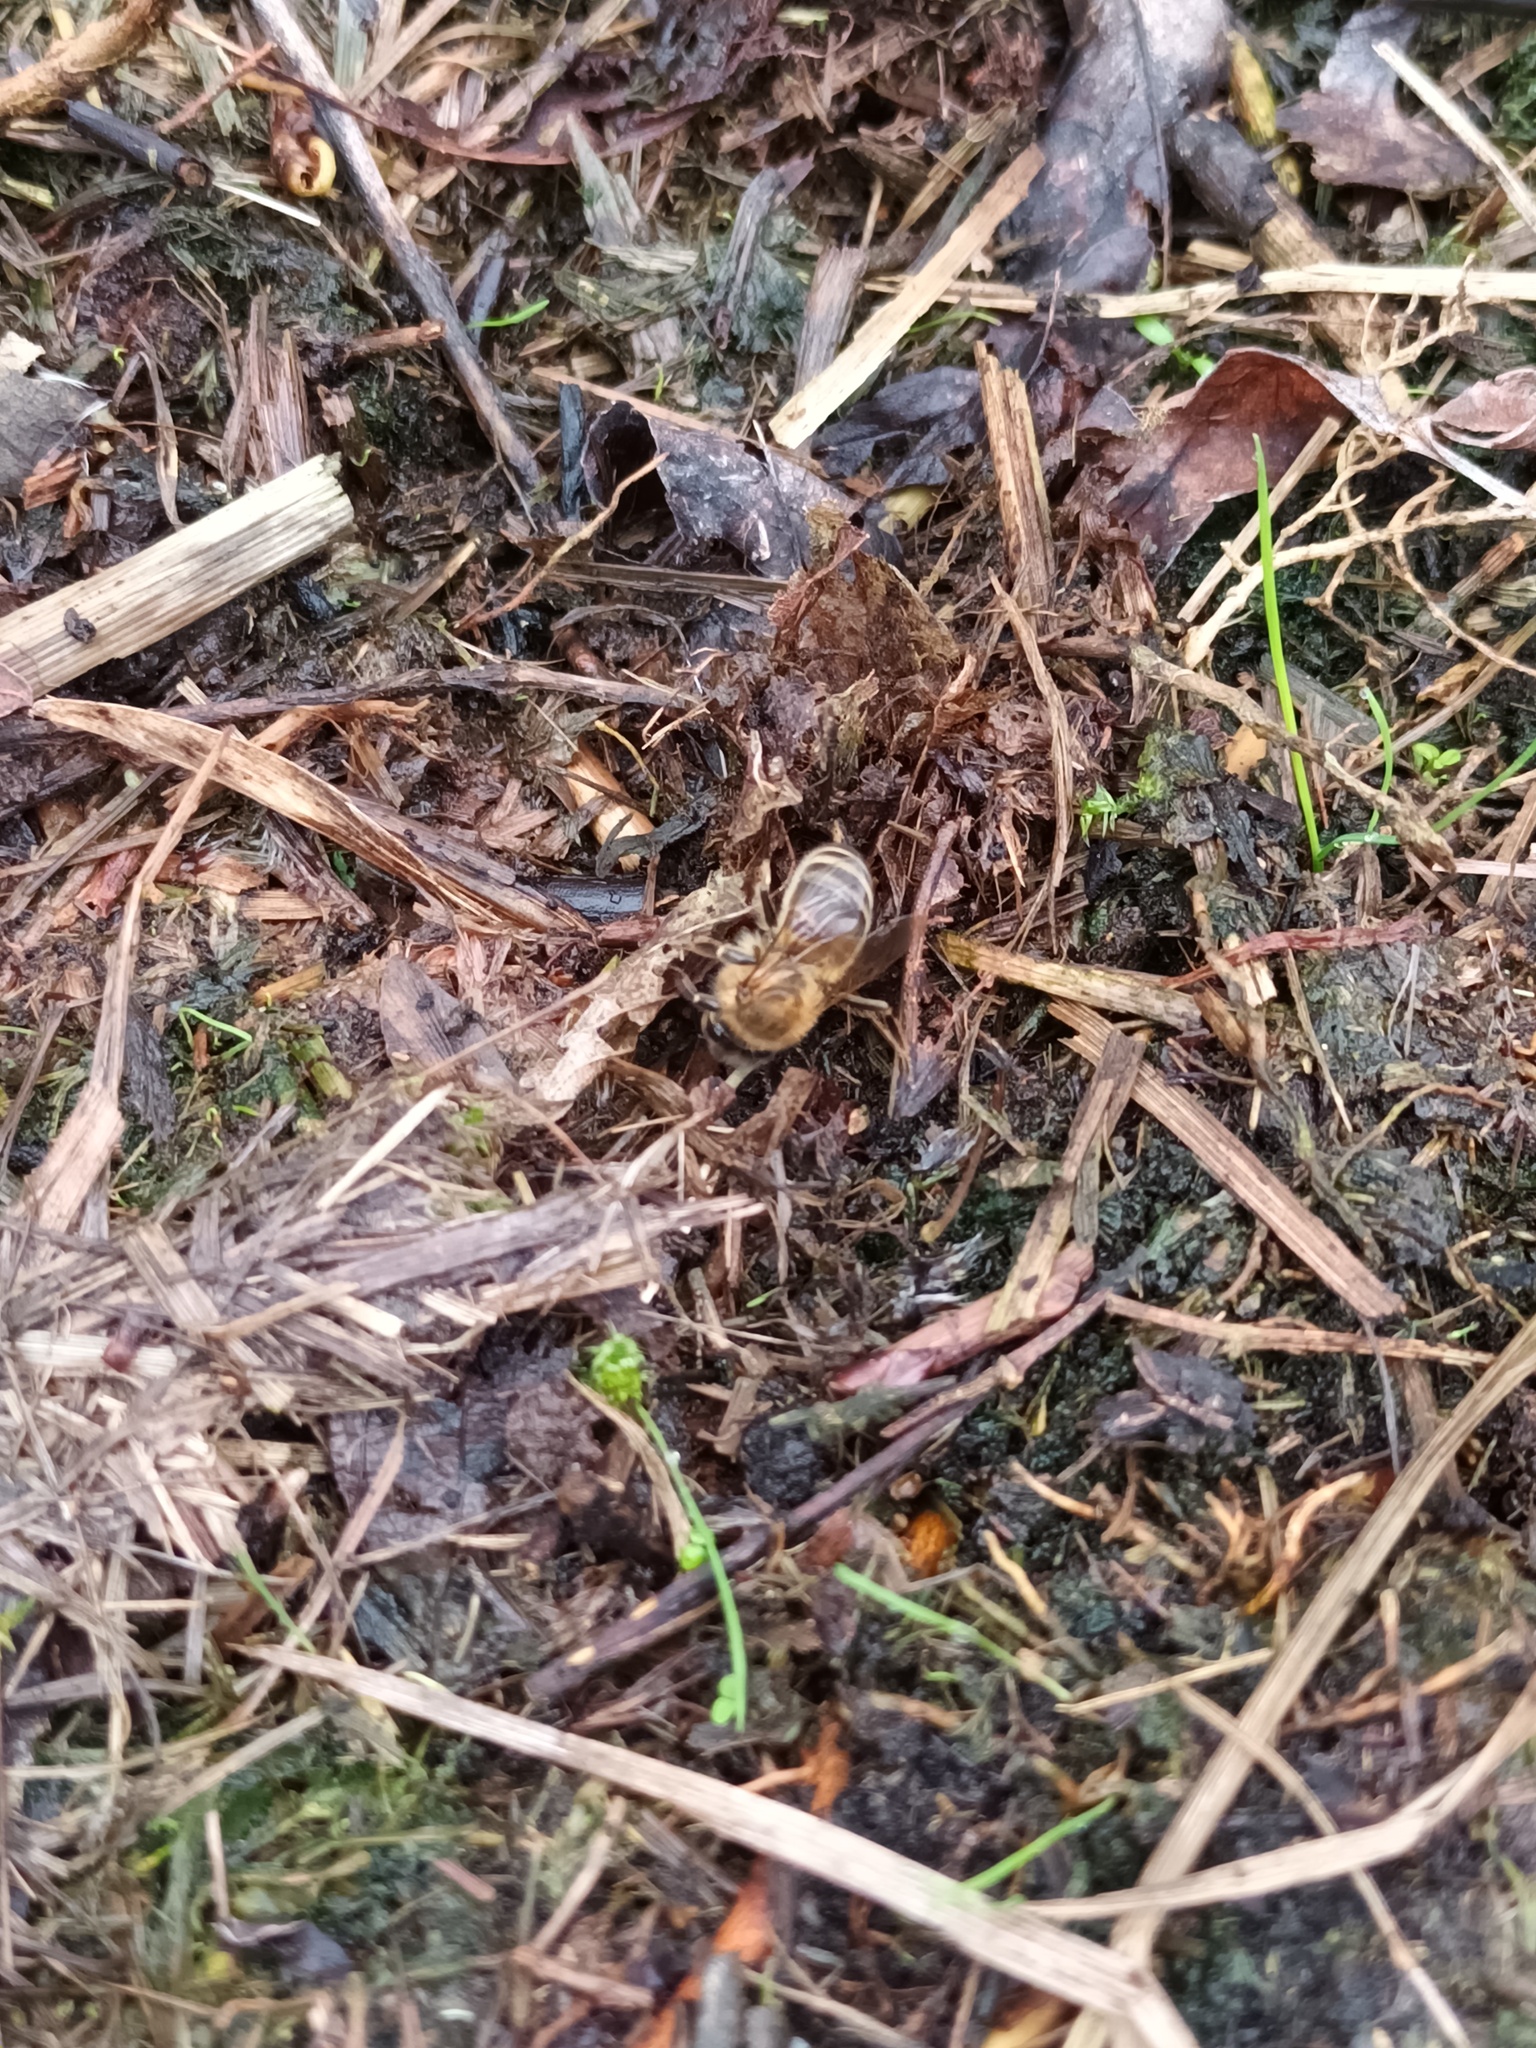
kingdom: Animalia
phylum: Arthropoda
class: Insecta
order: Hymenoptera
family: Apidae
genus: Apis
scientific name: Apis mellifera
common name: Honey bee
